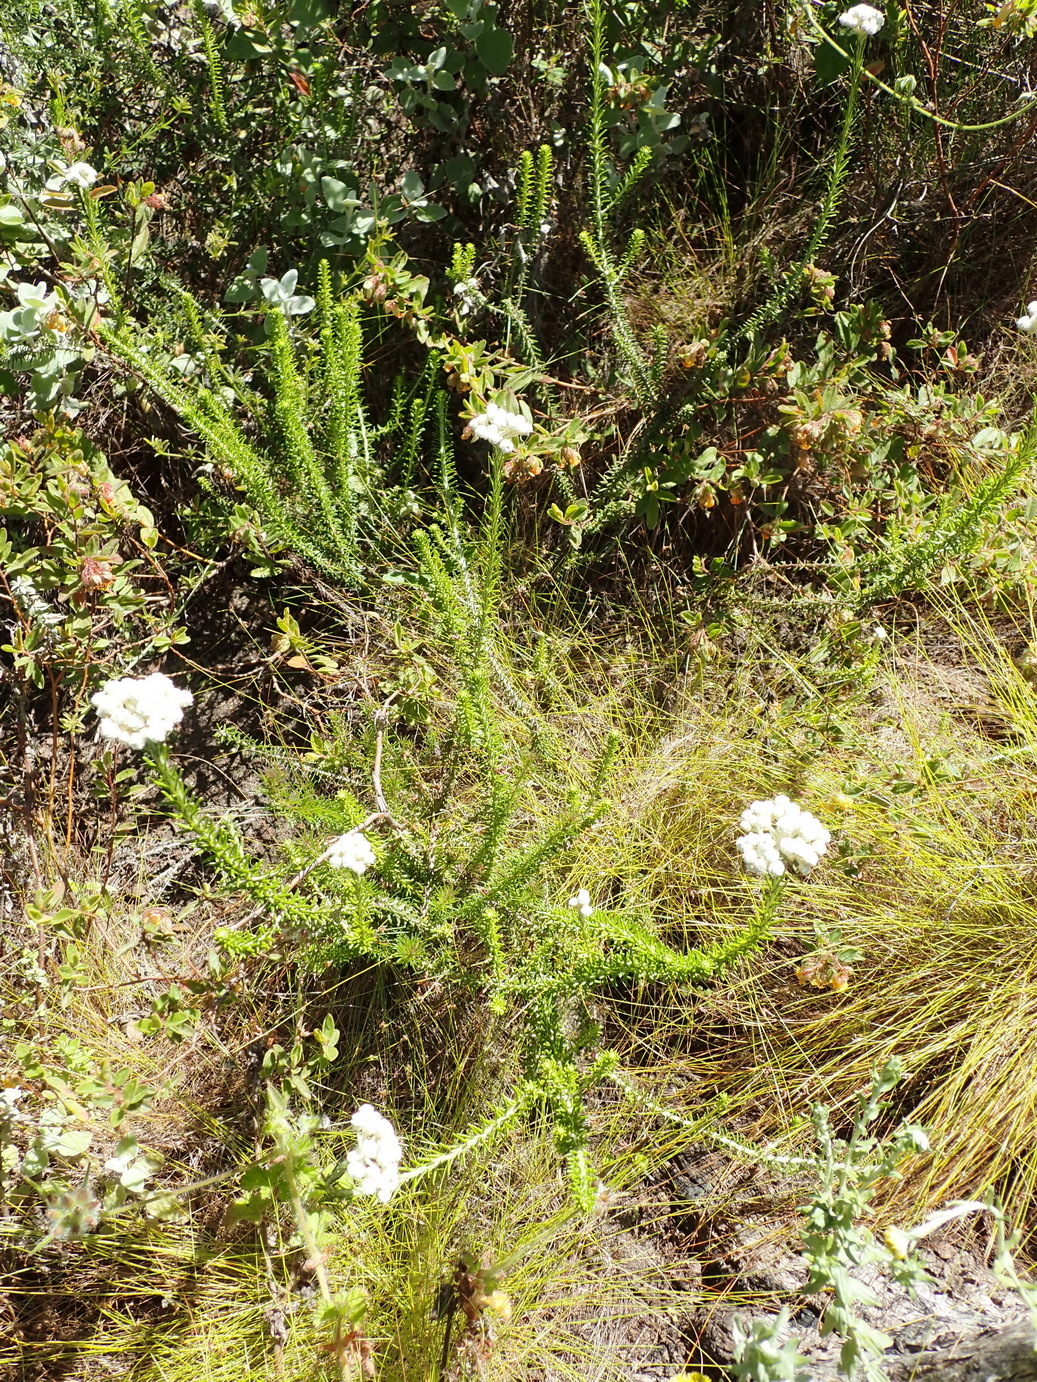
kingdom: Plantae
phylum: Tracheophyta
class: Magnoliopsida
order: Asterales
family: Asteraceae
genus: Helichrysum
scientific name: Helichrysum teretifolium
